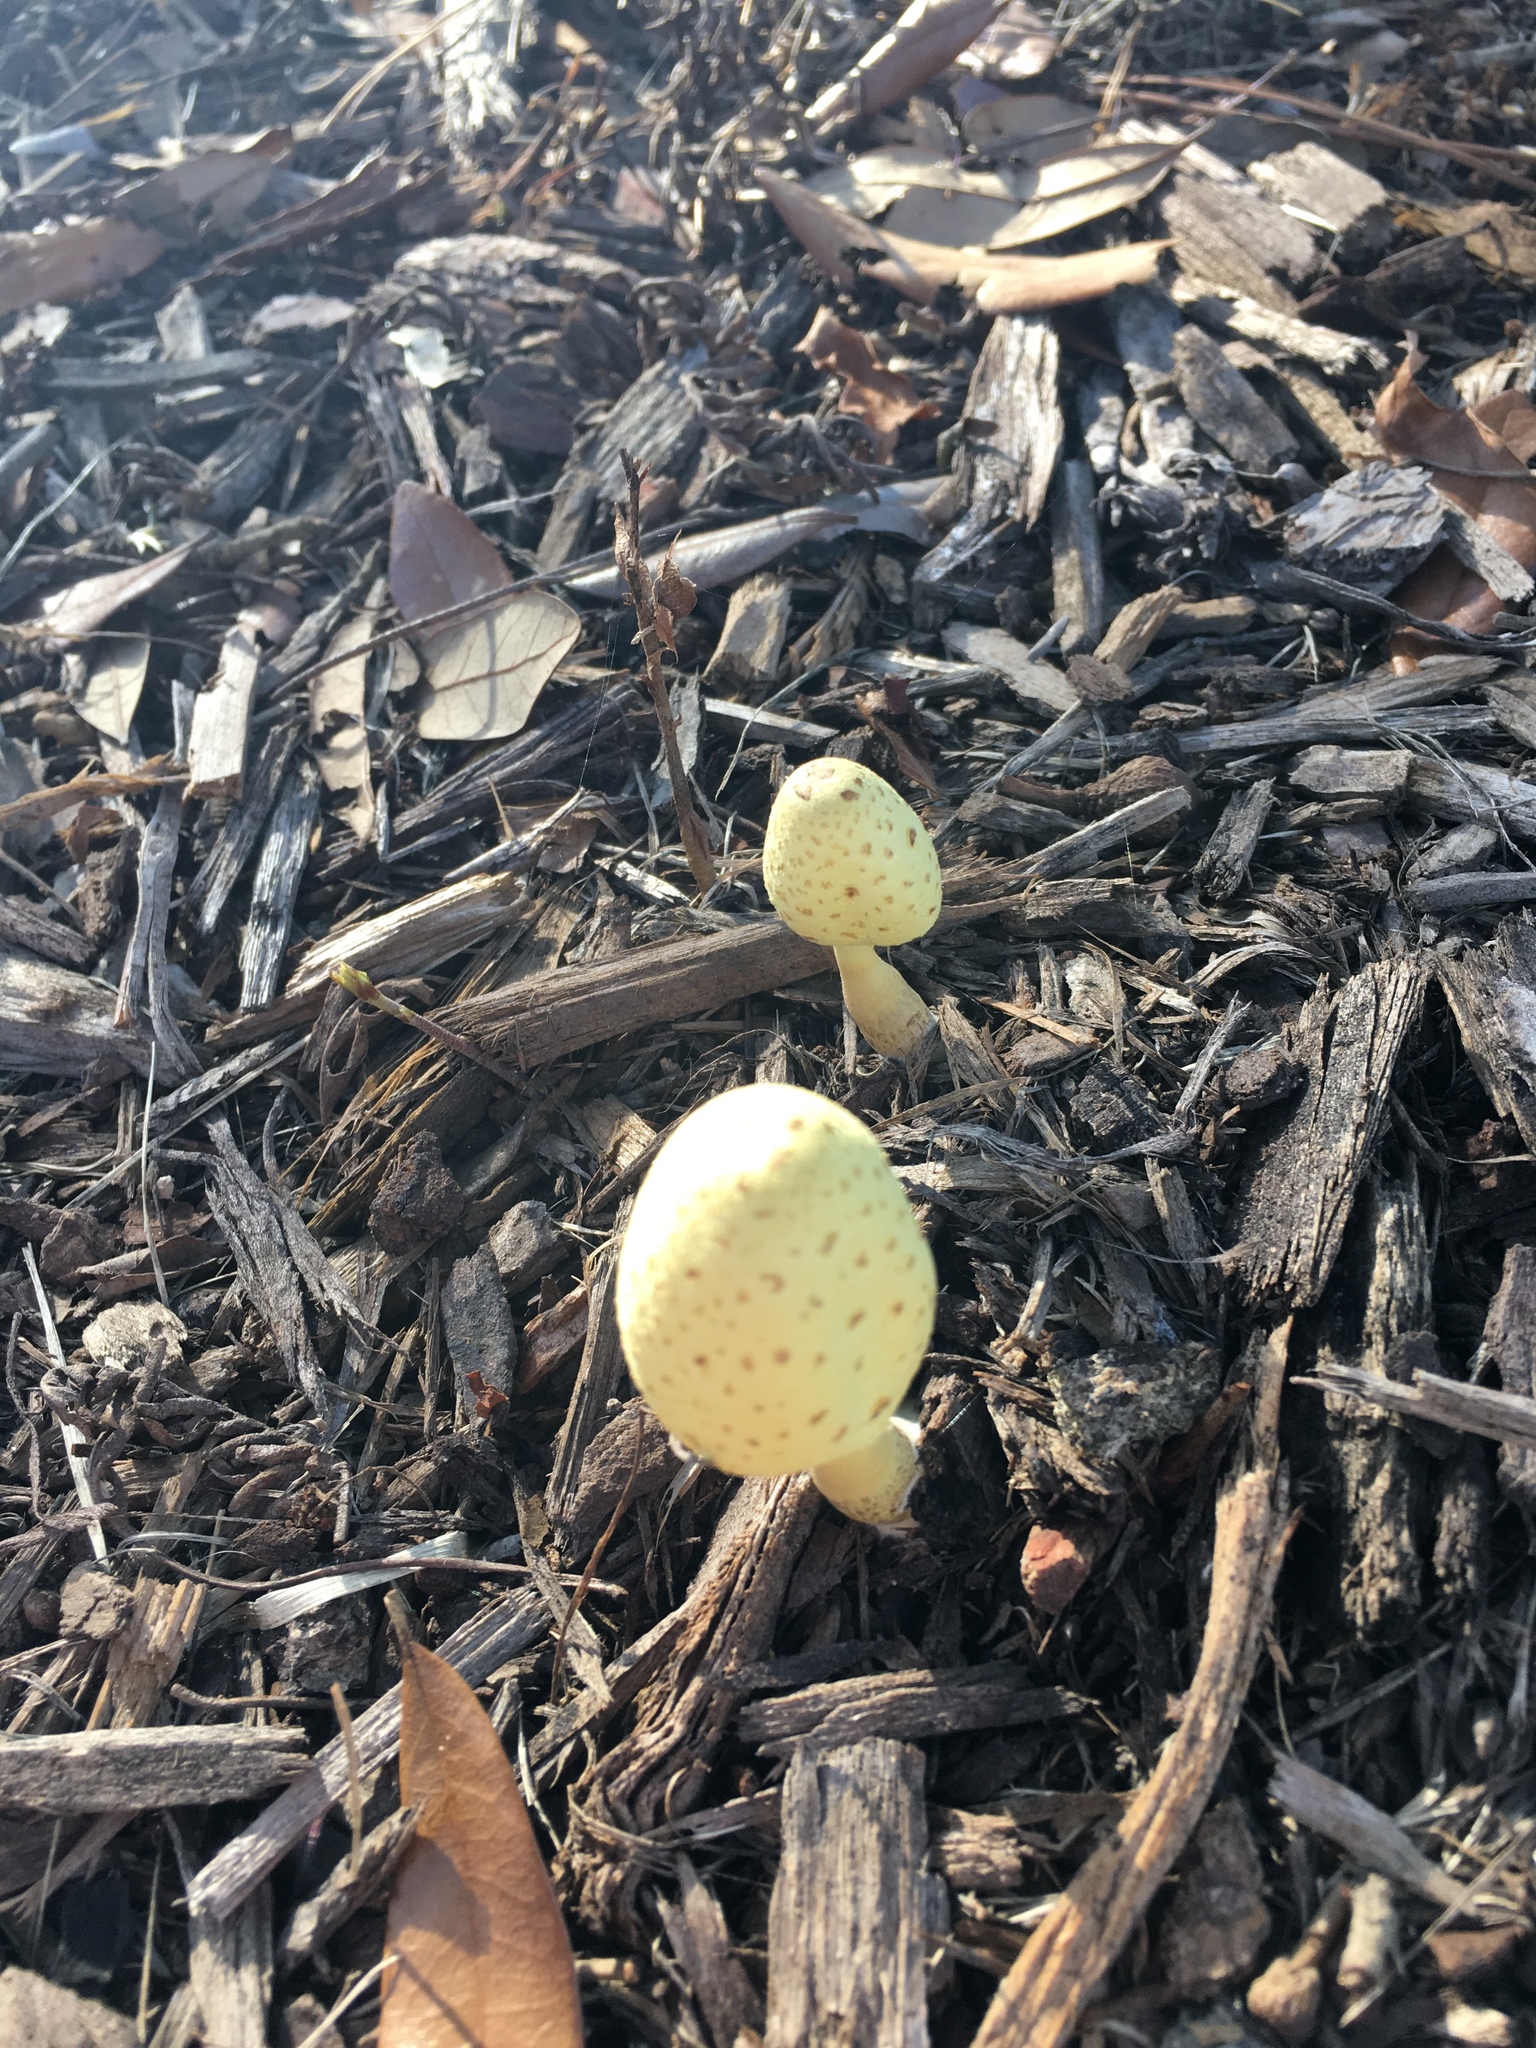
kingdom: Fungi
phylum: Basidiomycota
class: Agaricomycetes
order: Agaricales
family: Agaricaceae
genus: Leucocoprinus
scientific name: Leucocoprinus birnbaumii
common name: Plantpot dapperling
